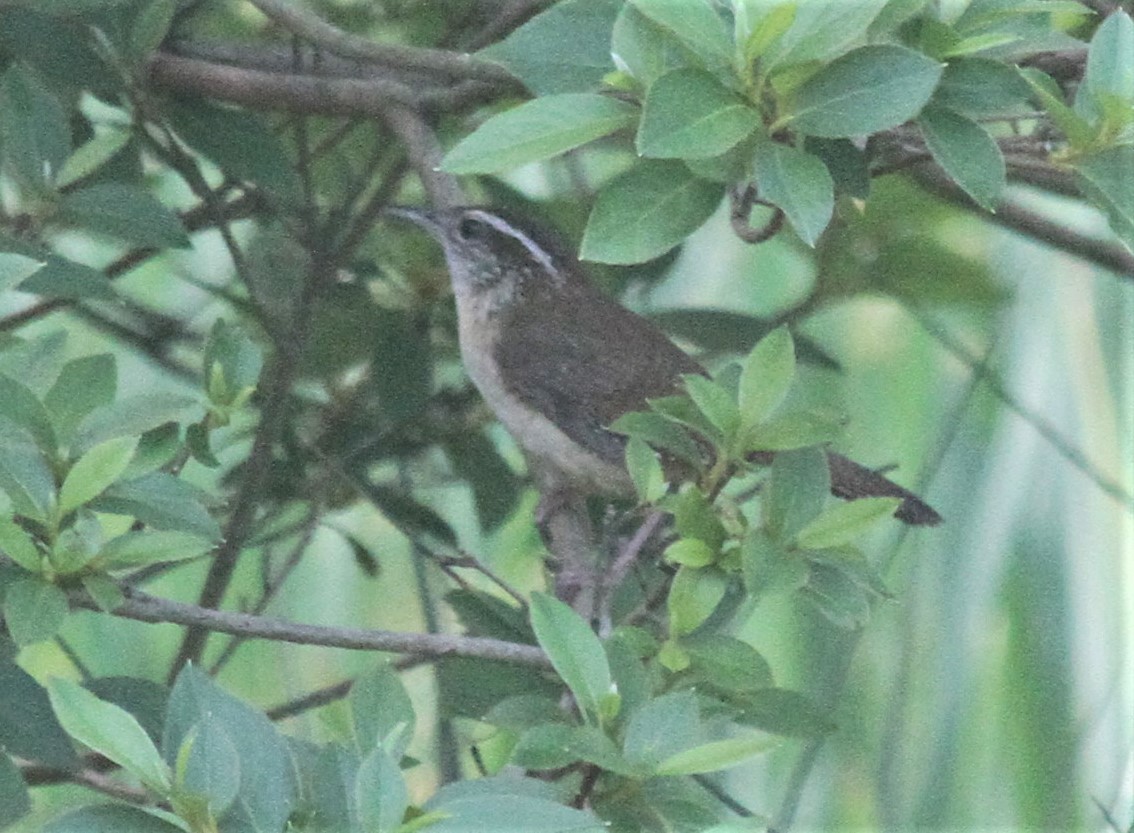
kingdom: Animalia
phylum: Chordata
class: Aves
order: Passeriformes
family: Troglodytidae
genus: Thryothorus
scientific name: Thryothorus ludovicianus
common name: Carolina wren
